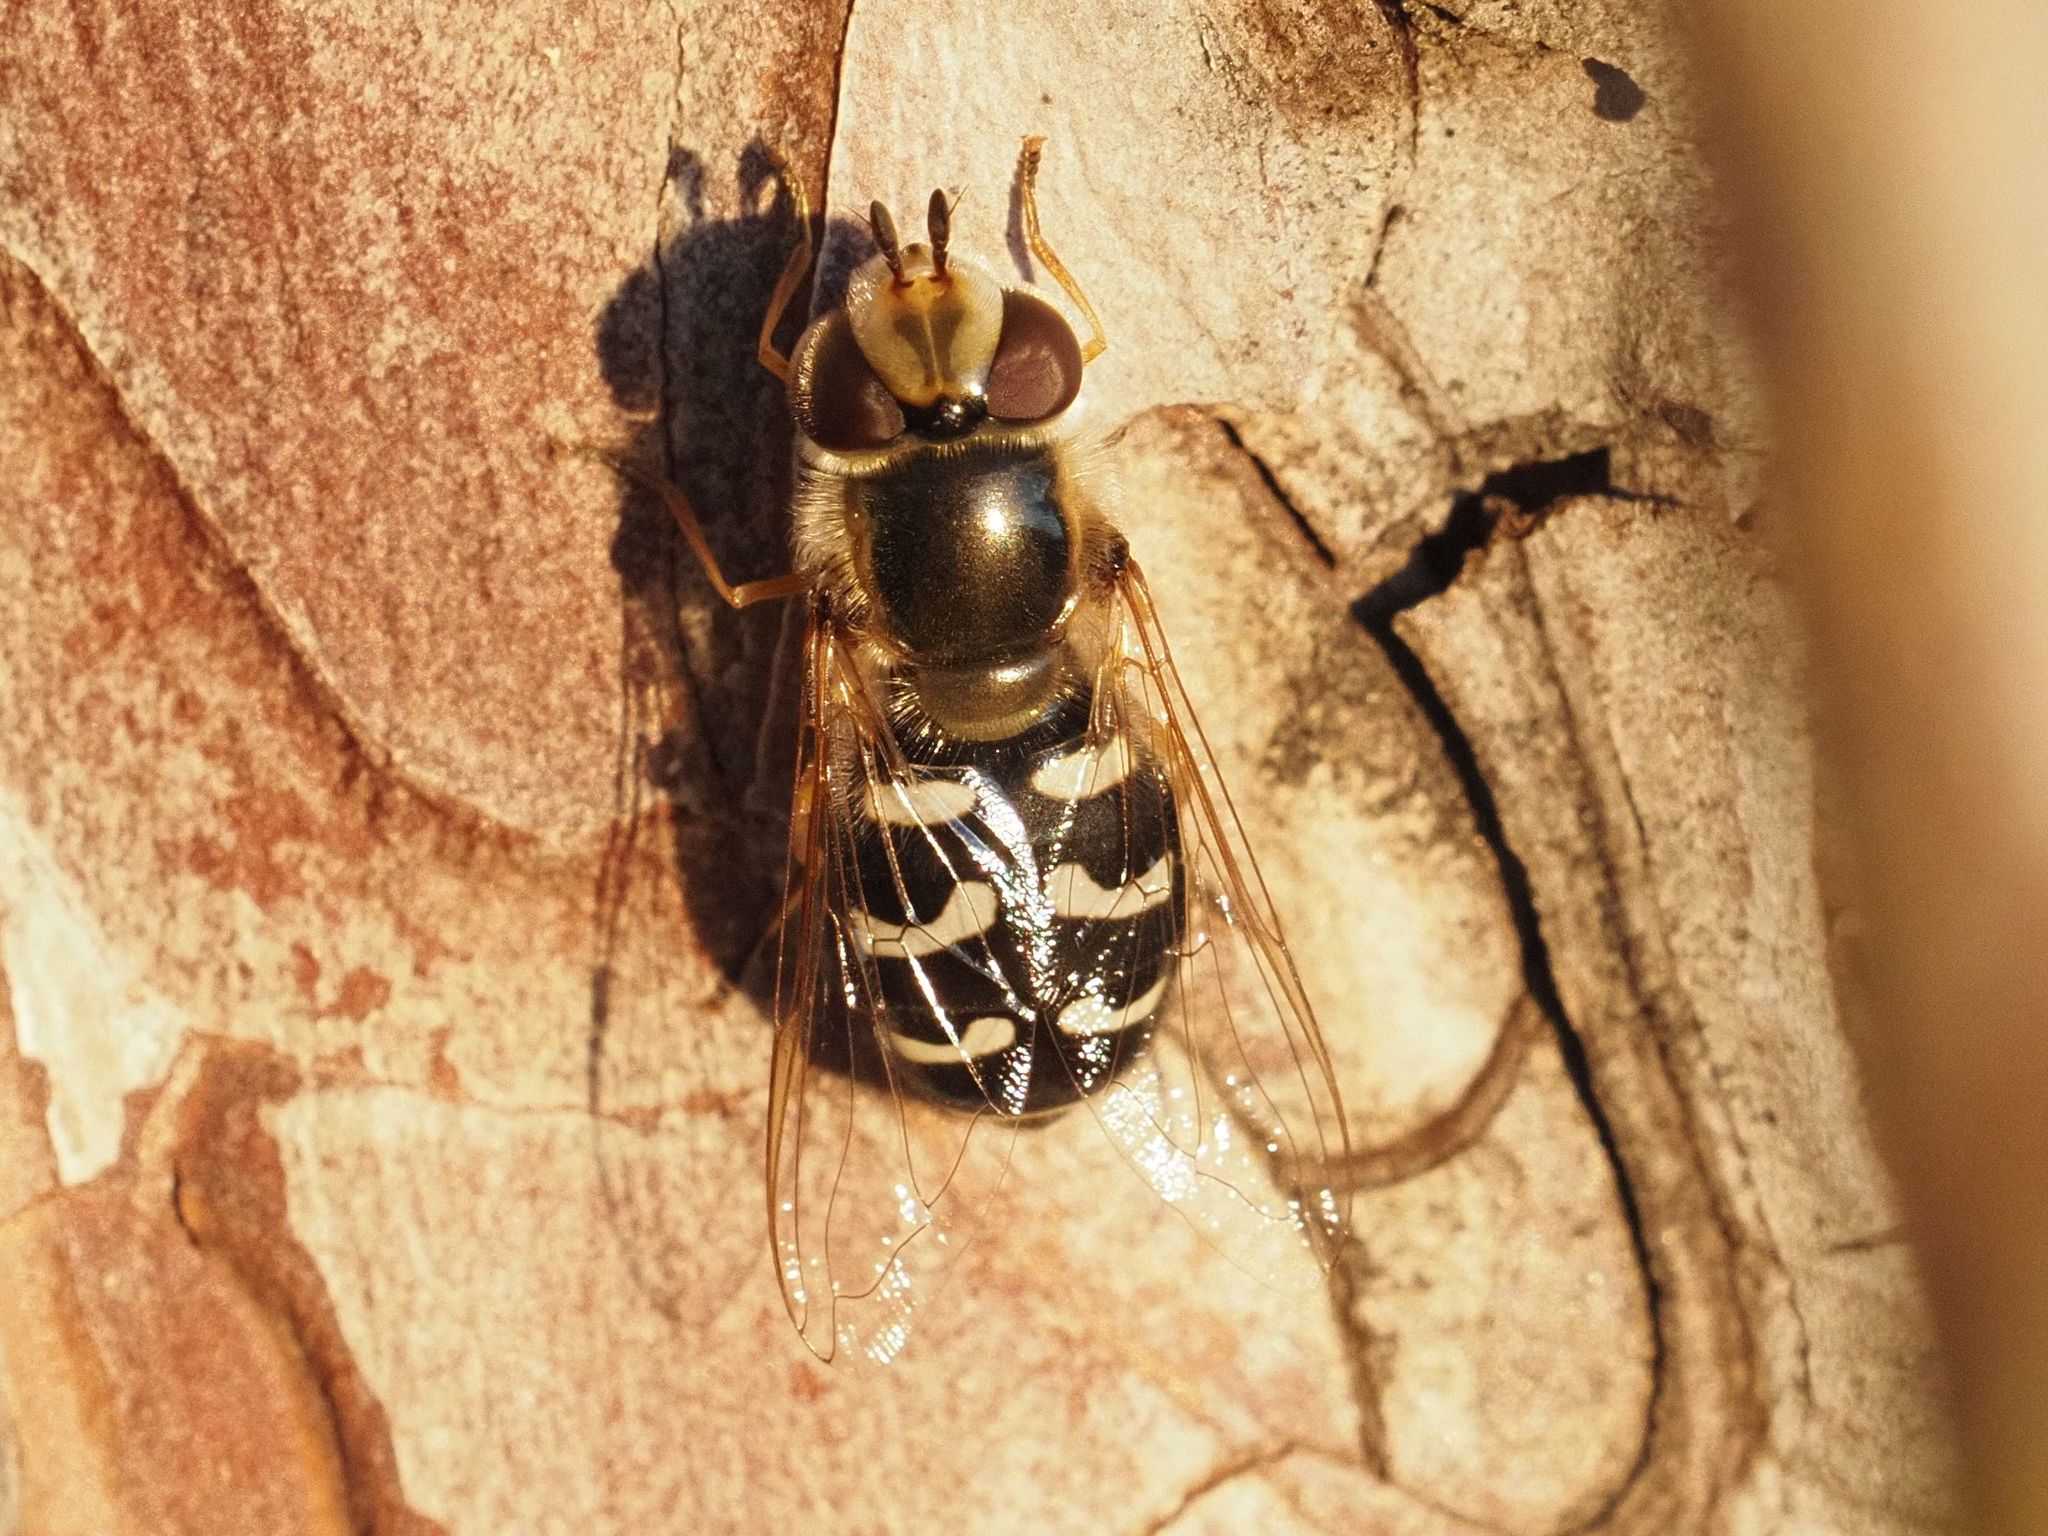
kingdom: Animalia
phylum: Arthropoda
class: Insecta
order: Diptera
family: Syrphidae
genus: Scaeva
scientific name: Scaeva pyrastri
